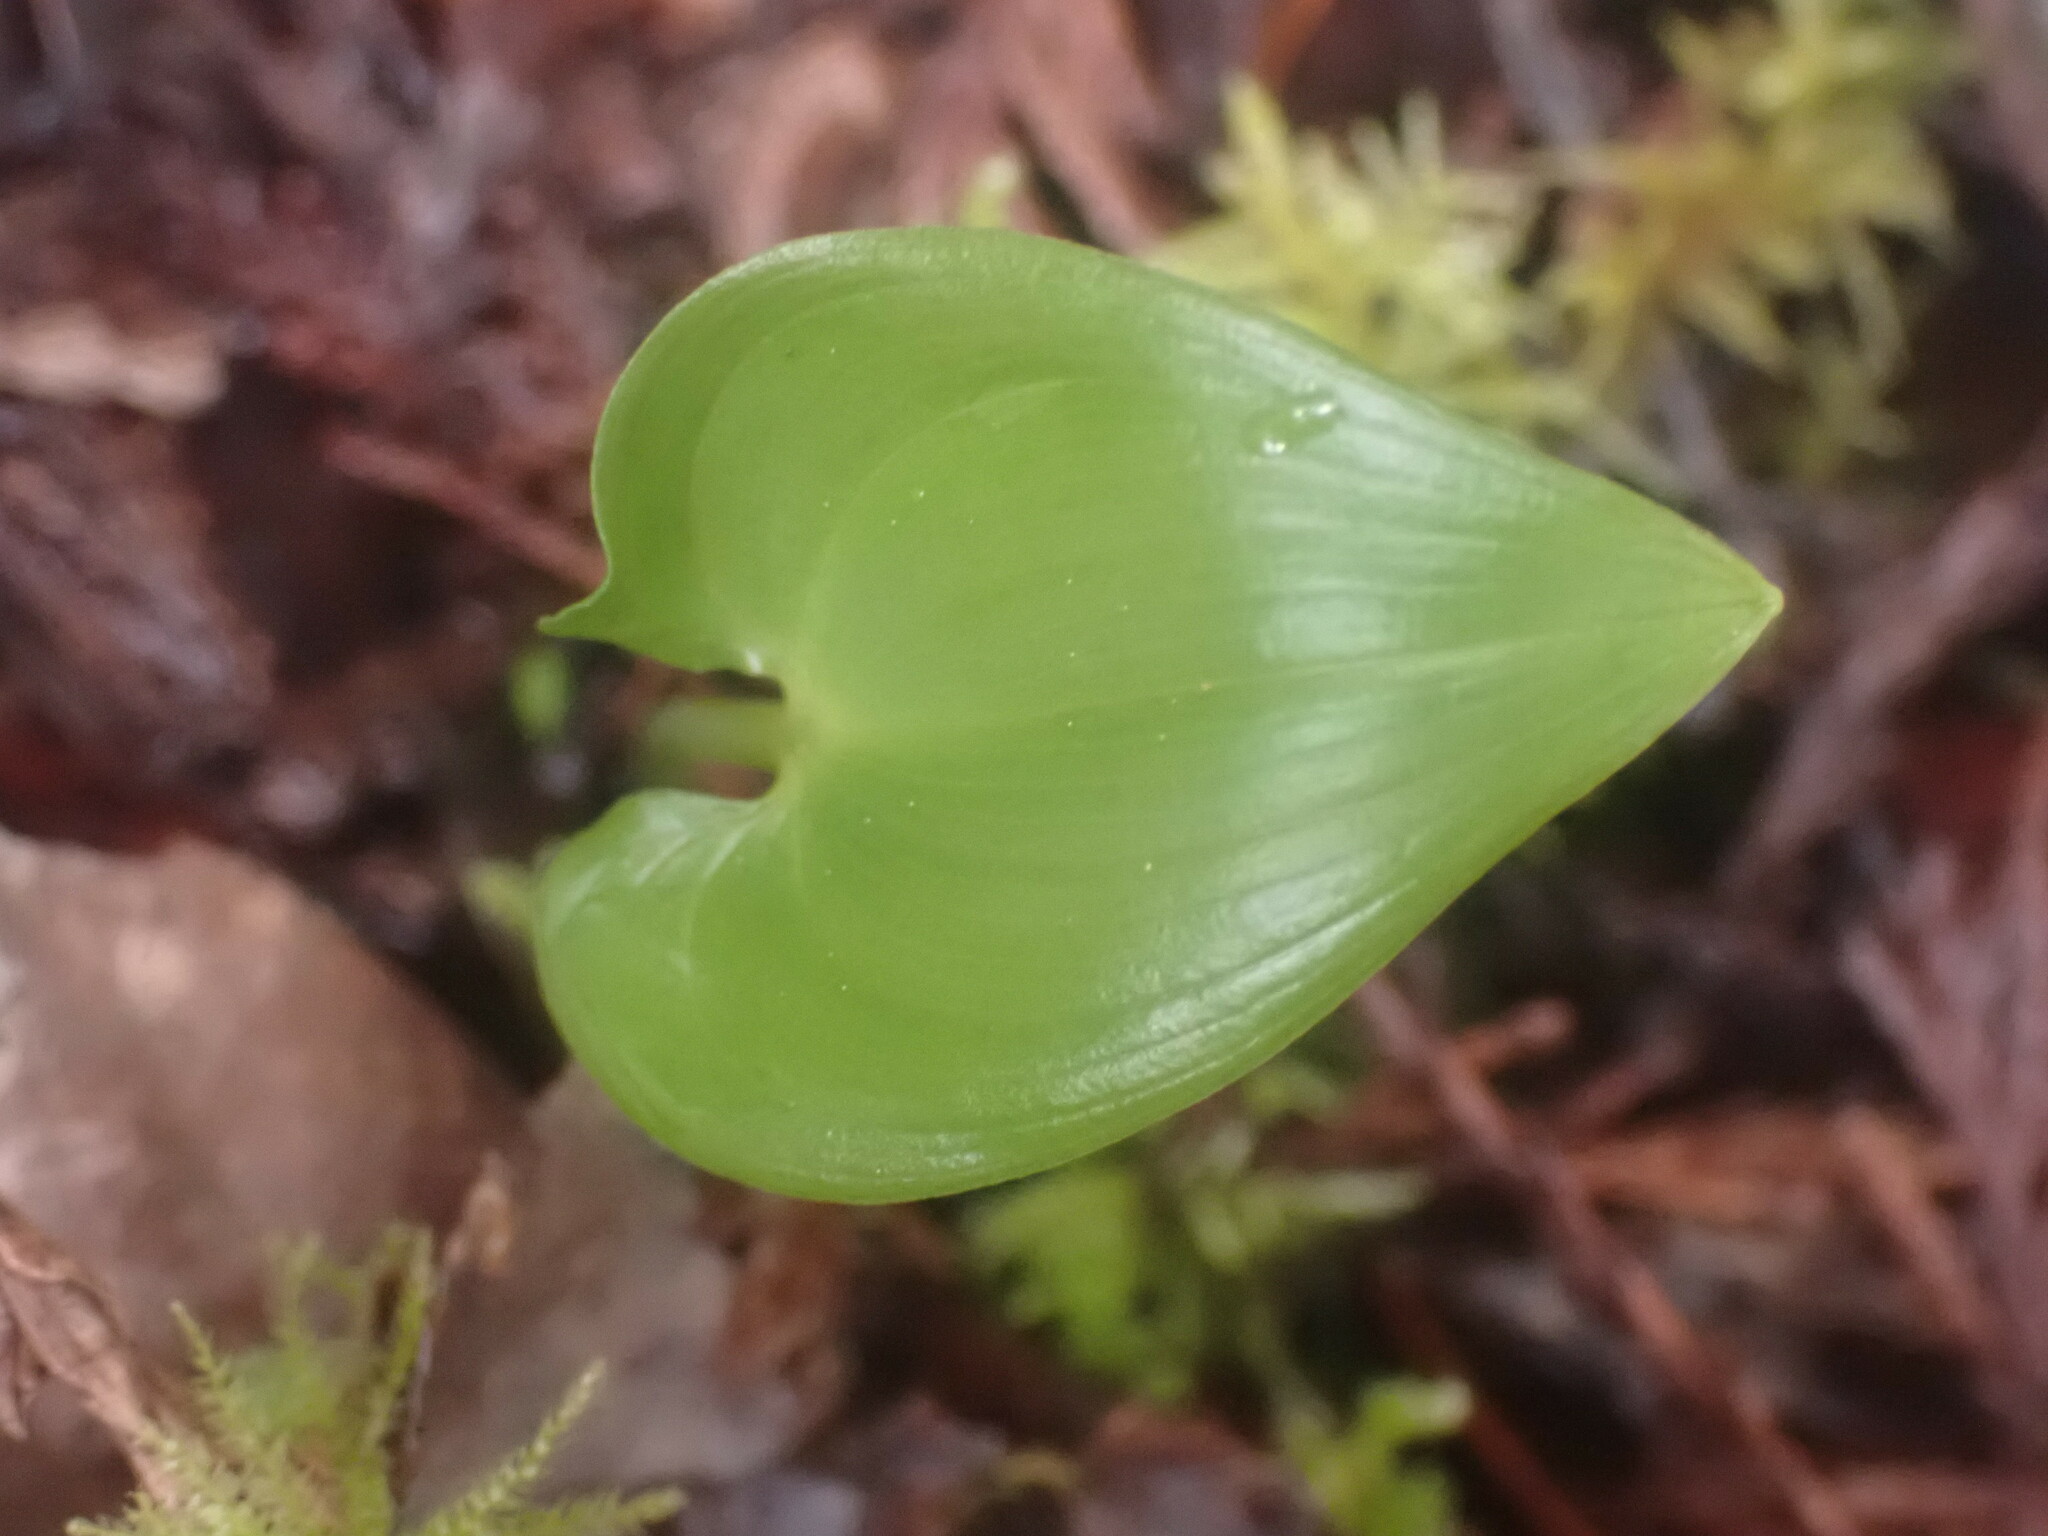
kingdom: Plantae
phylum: Tracheophyta
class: Liliopsida
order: Asparagales
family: Asparagaceae
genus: Maianthemum
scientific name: Maianthemum dilatatum
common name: False lily-of-the-valley
